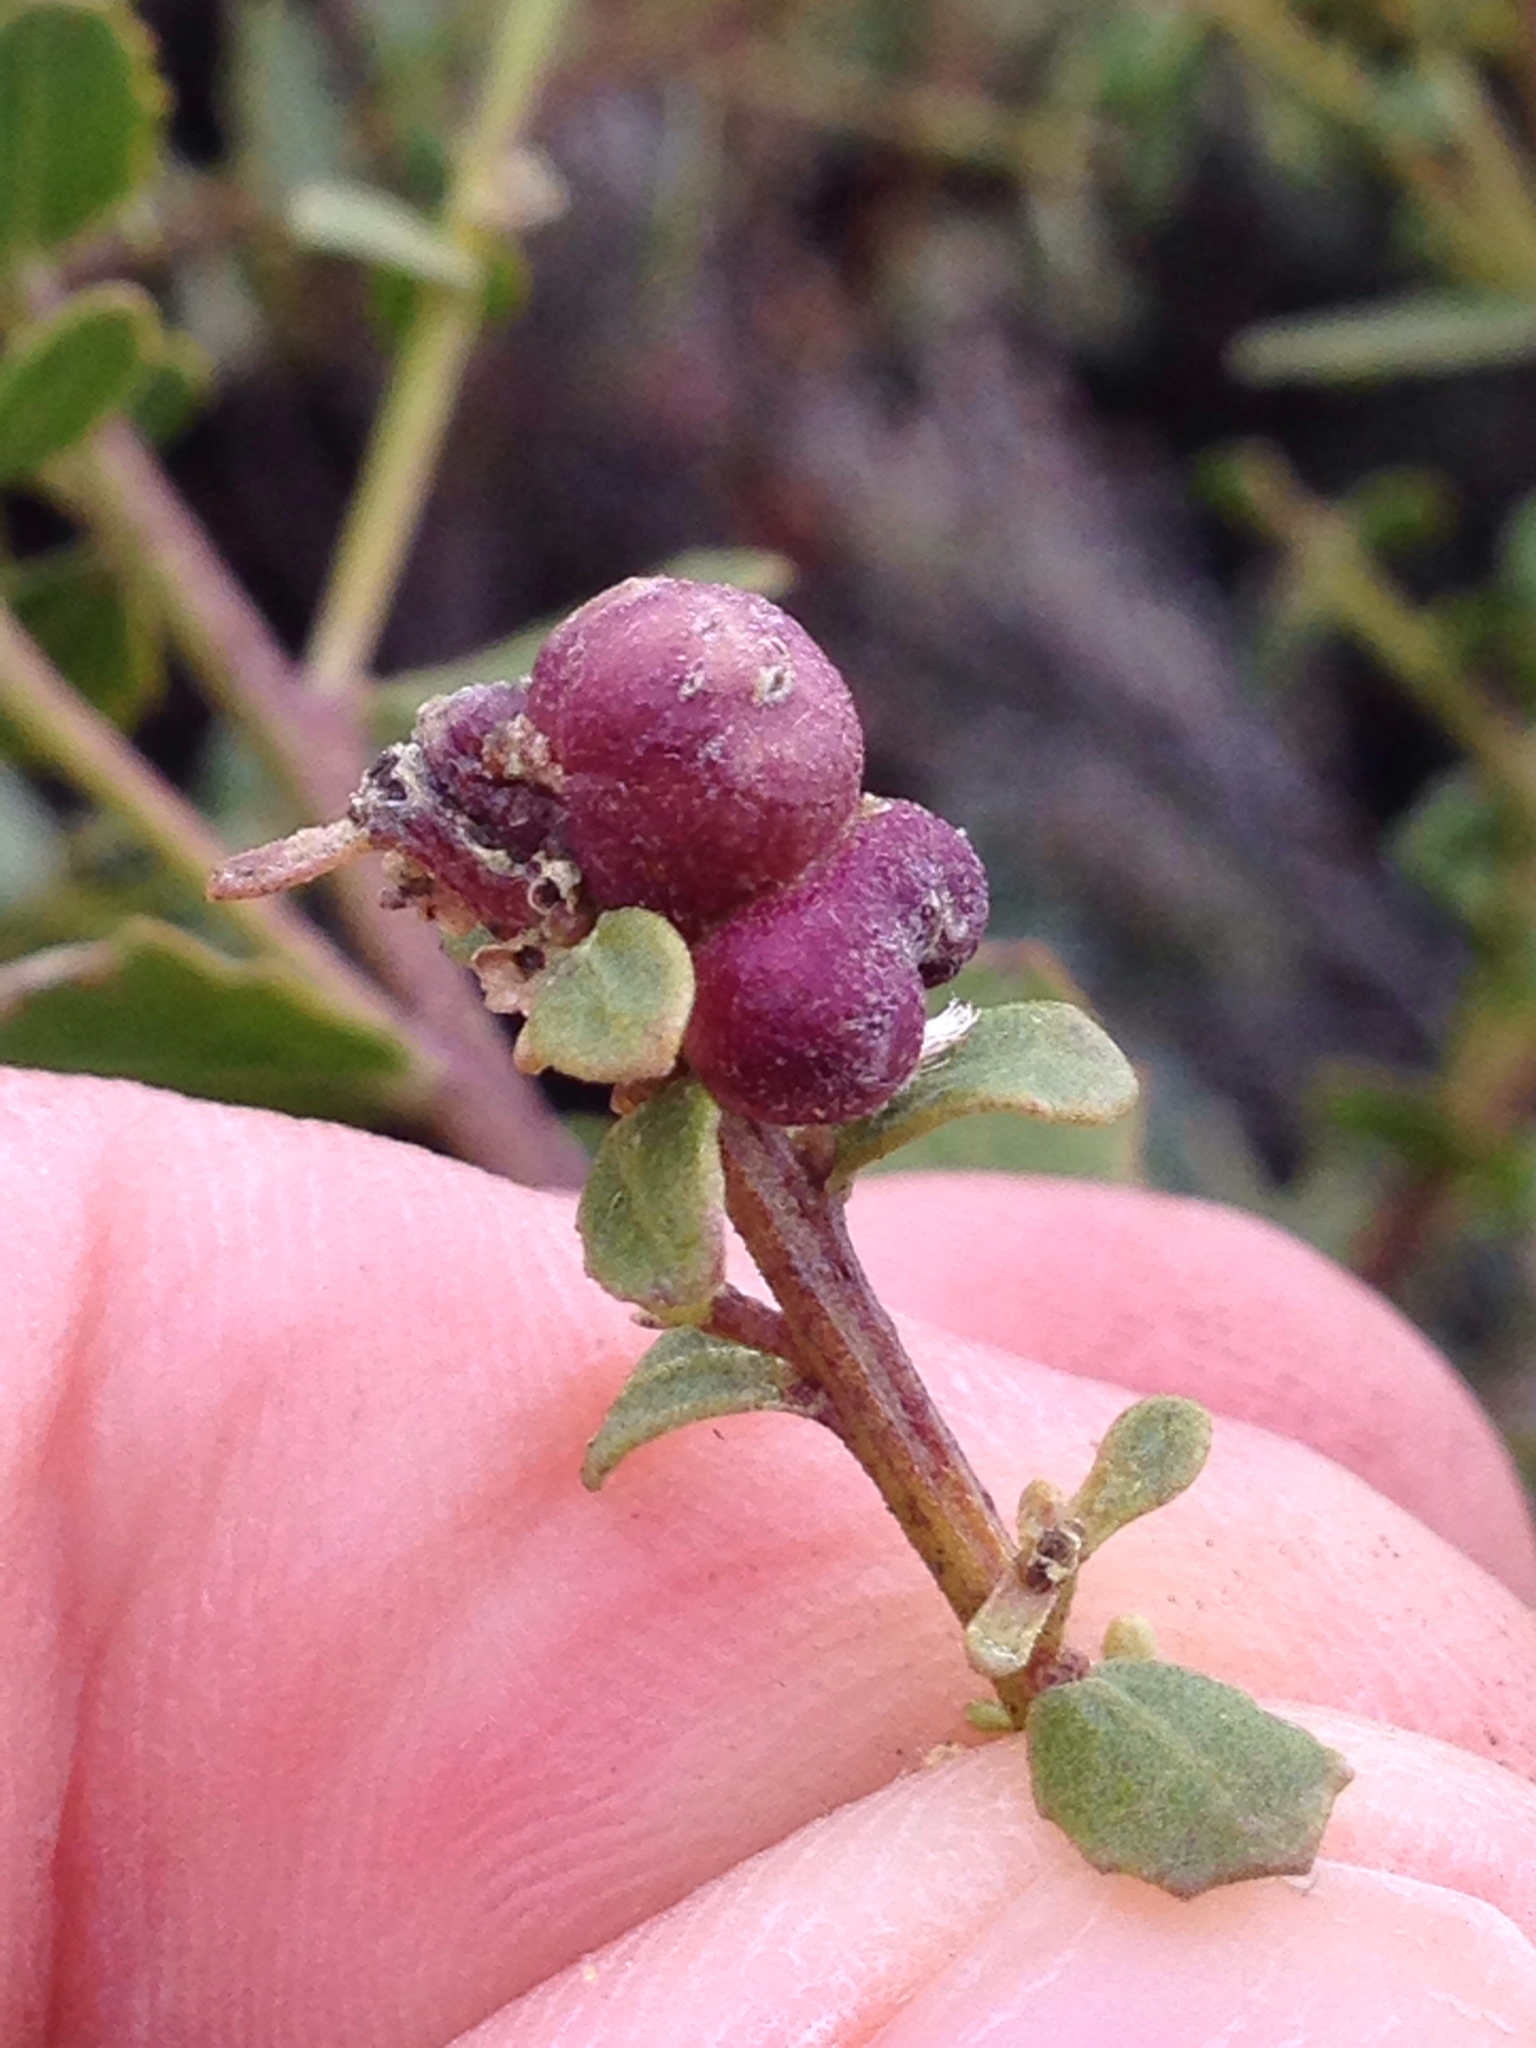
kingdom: Animalia
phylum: Arthropoda
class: Insecta
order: Diptera
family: Cecidomyiidae
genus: Rhopalomyia
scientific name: Rhopalomyia californica
